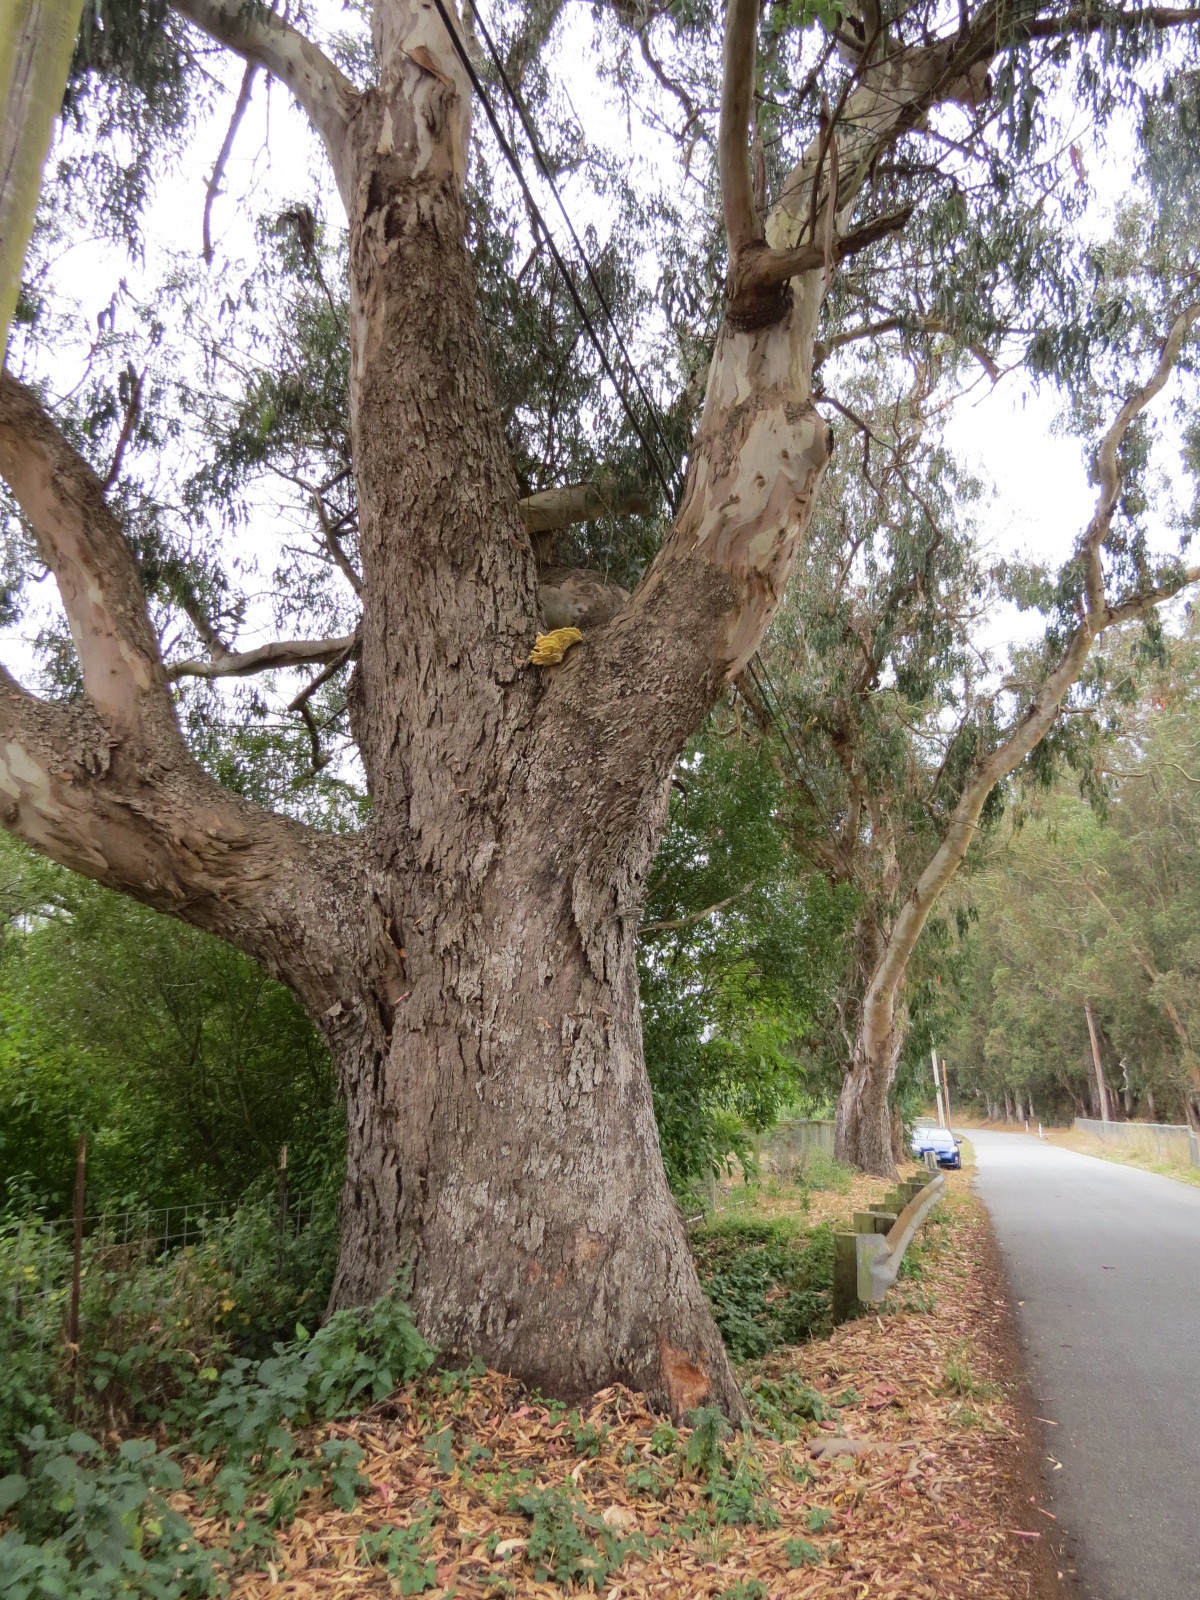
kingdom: Fungi
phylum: Basidiomycota
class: Agaricomycetes
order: Polyporales
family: Laetiporaceae
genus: Laetiporus
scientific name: Laetiporus gilbertsonii
